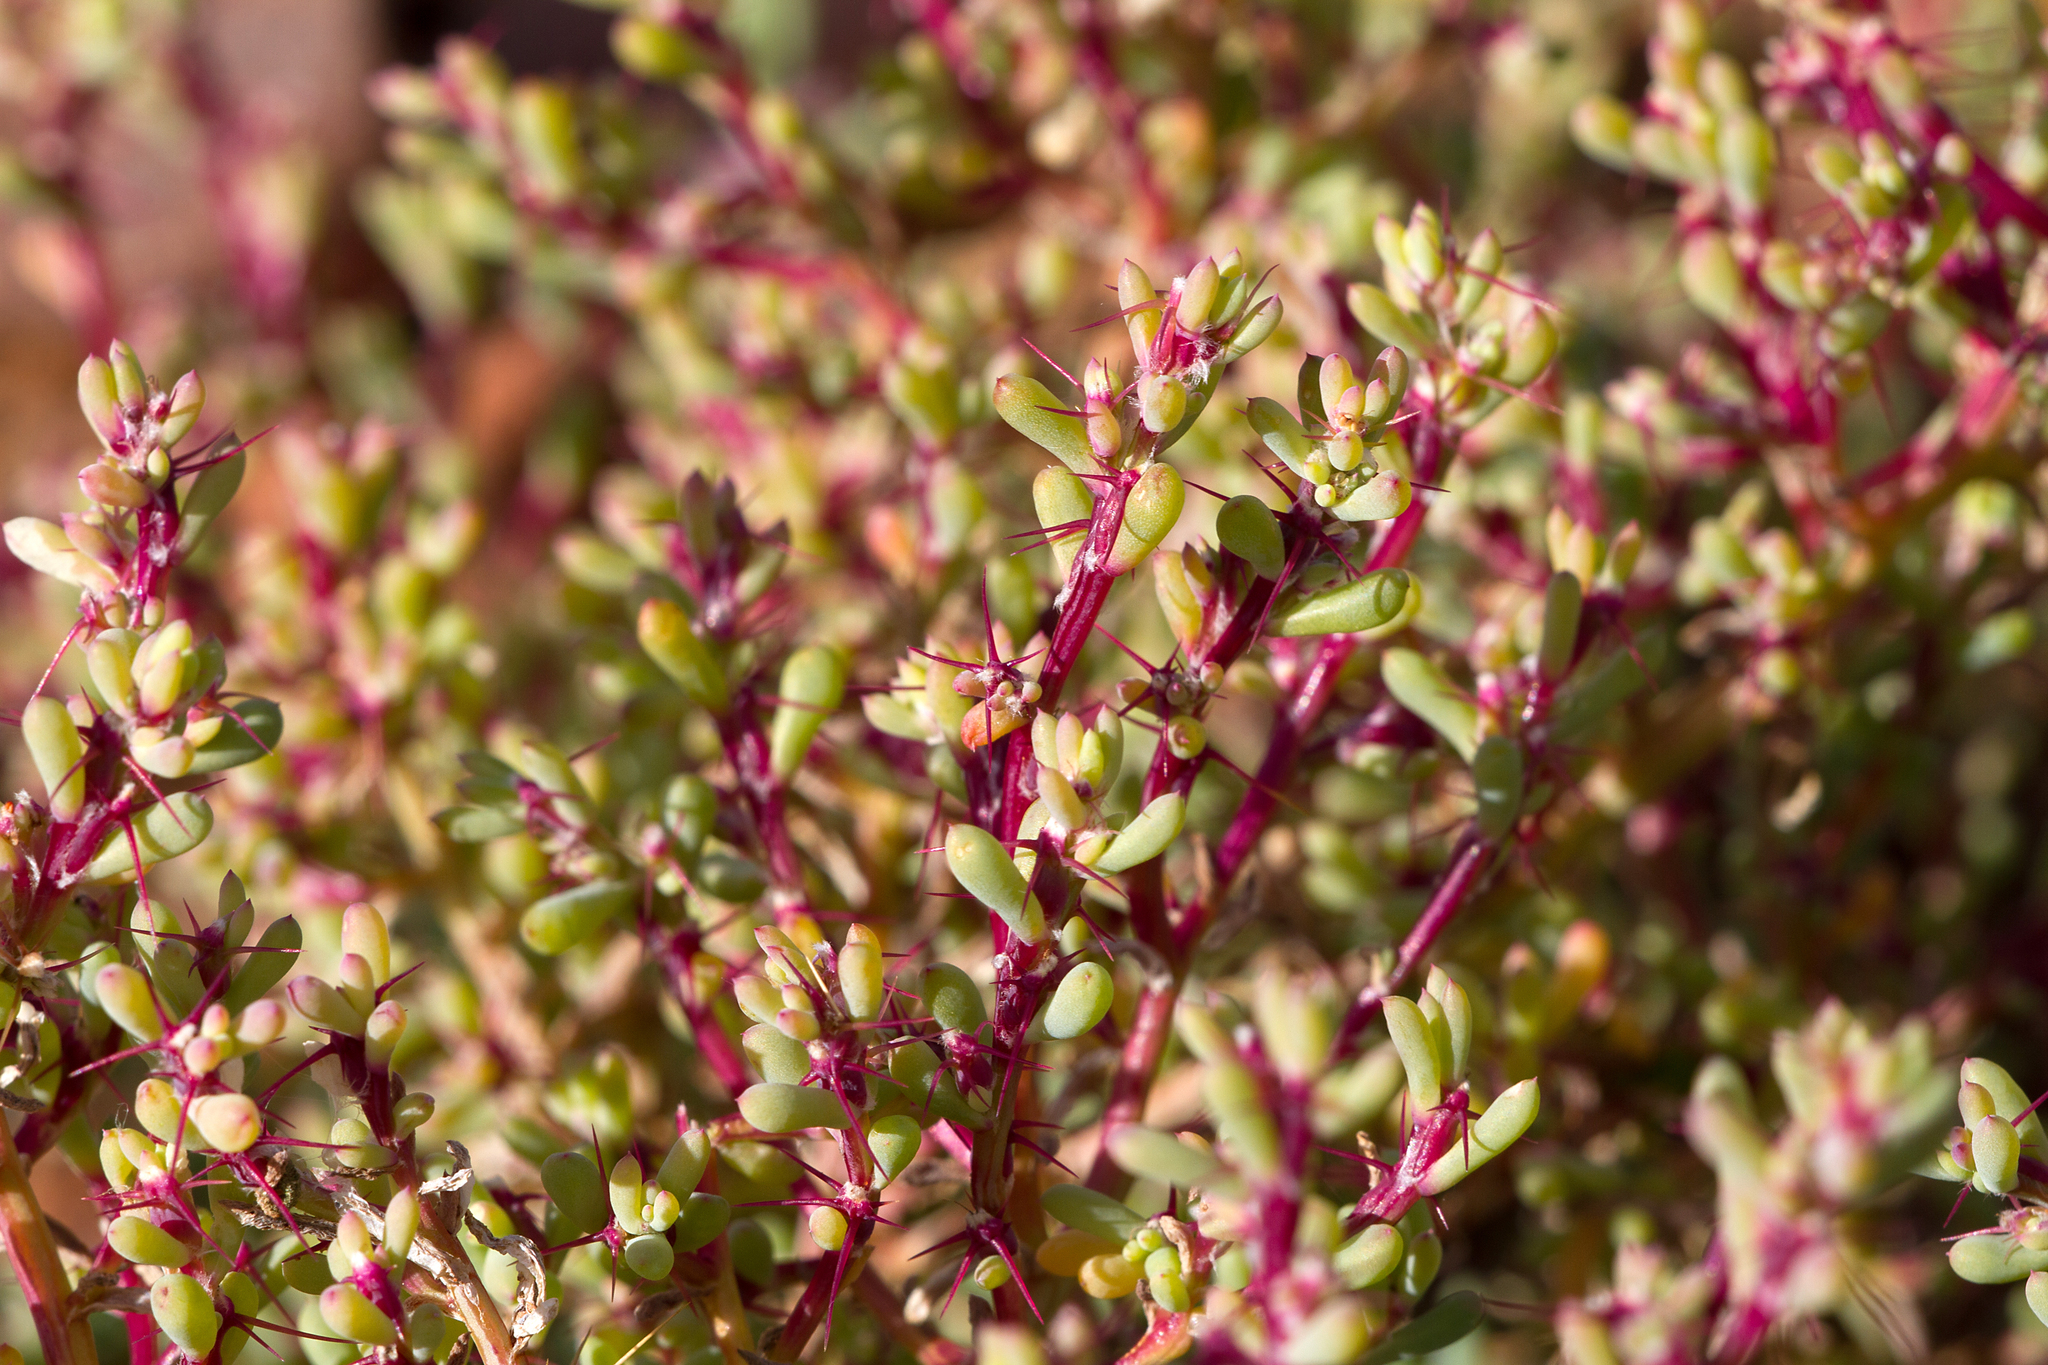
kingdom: Plantae
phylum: Tracheophyta
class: Magnoliopsida
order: Caryophyllales
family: Amaranthaceae
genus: Sclerolaena
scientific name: Sclerolaena intricata
